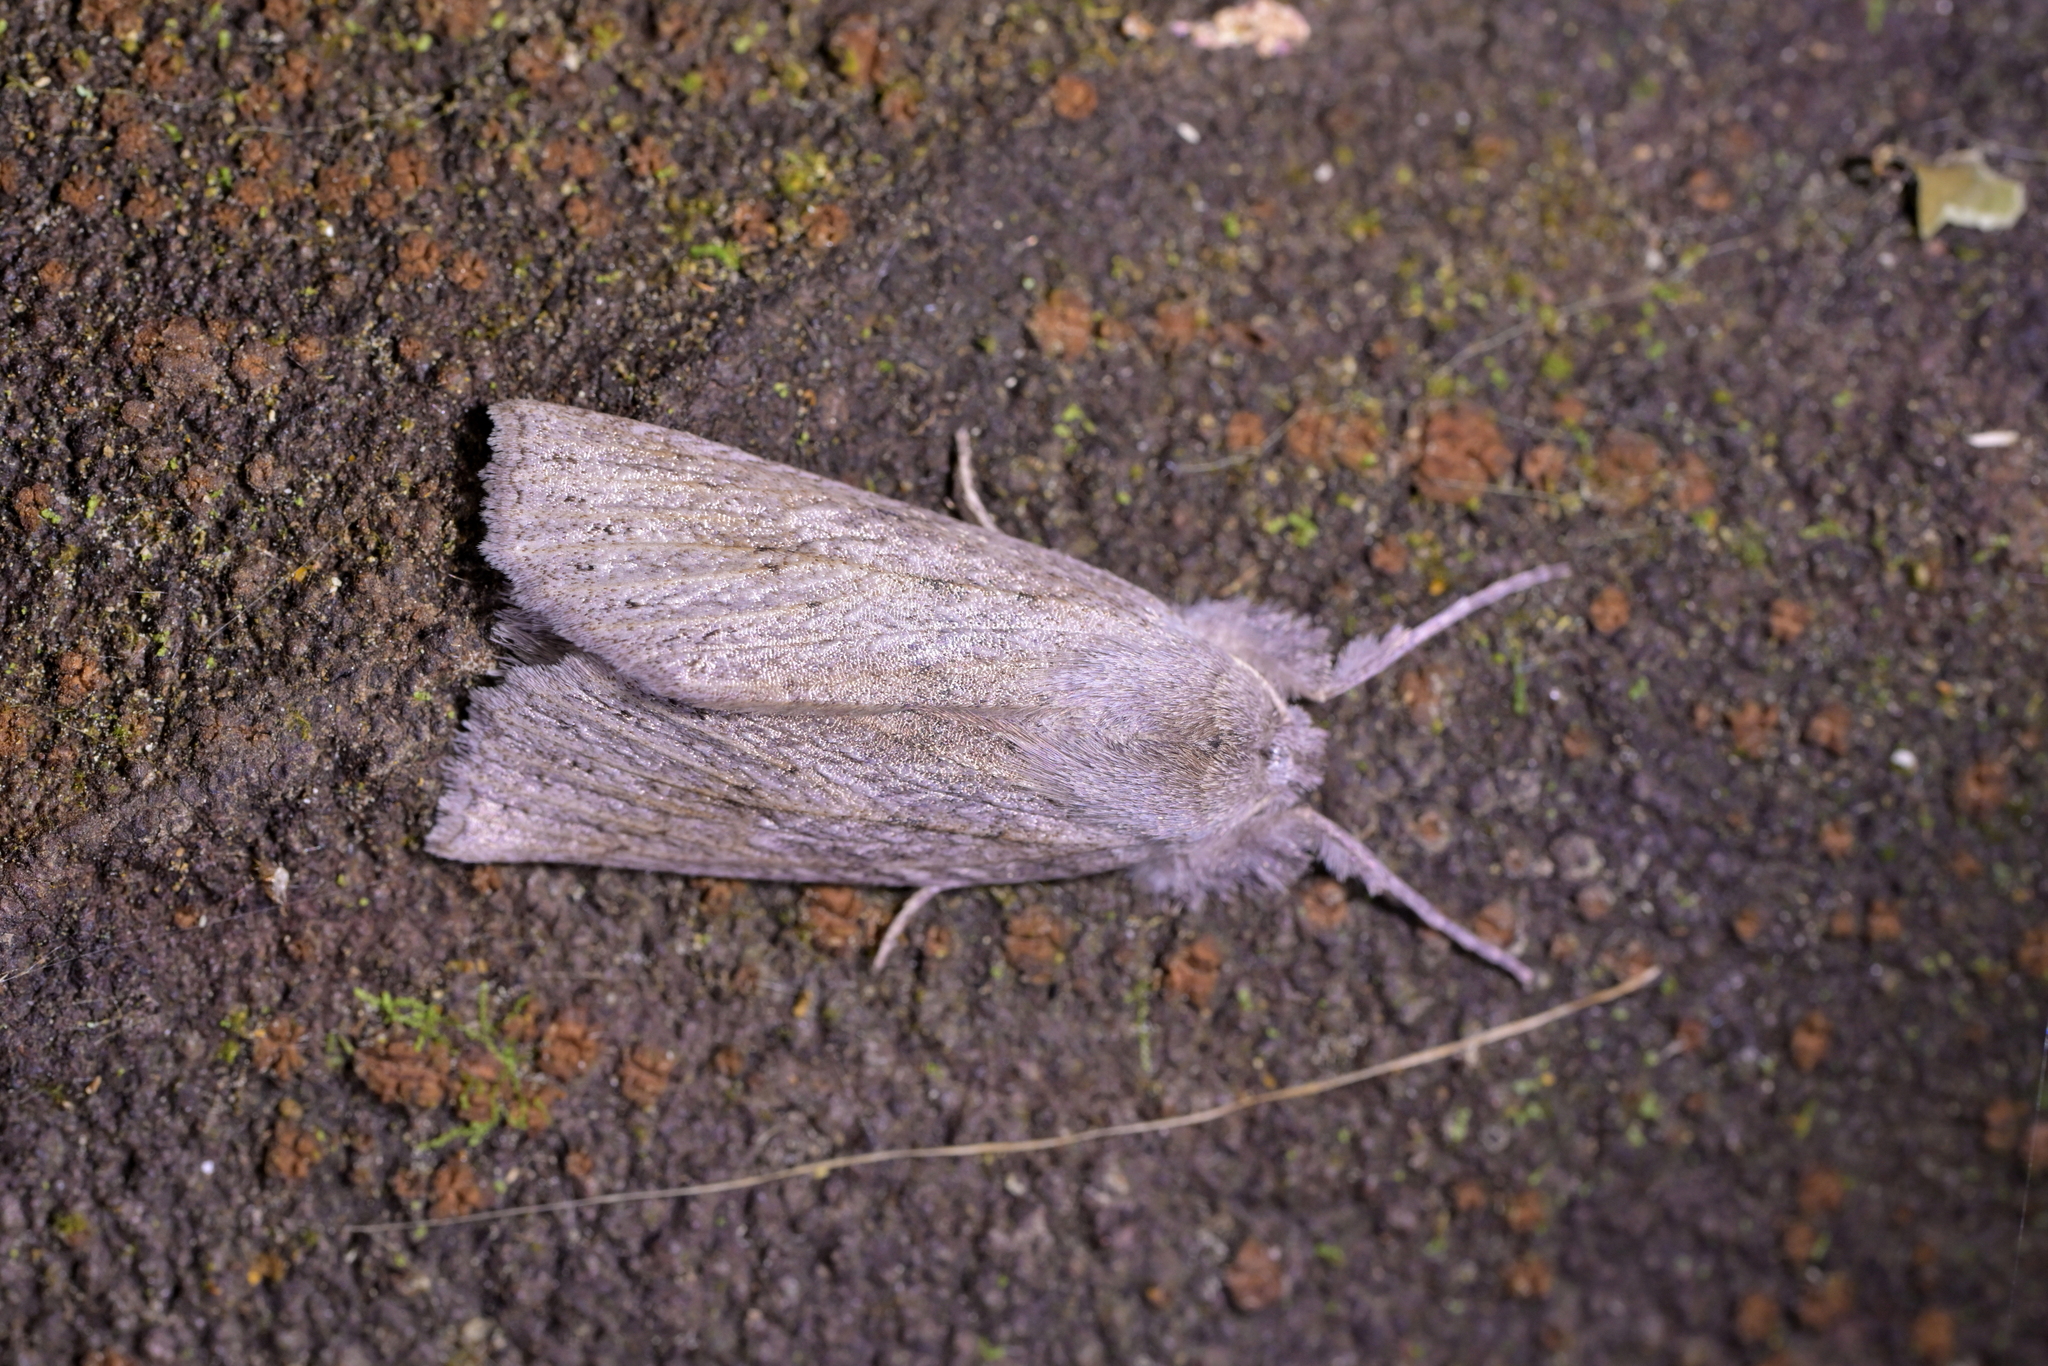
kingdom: Animalia
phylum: Arthropoda
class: Insecta
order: Lepidoptera
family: Geometridae
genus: Declana
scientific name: Declana leptomera
